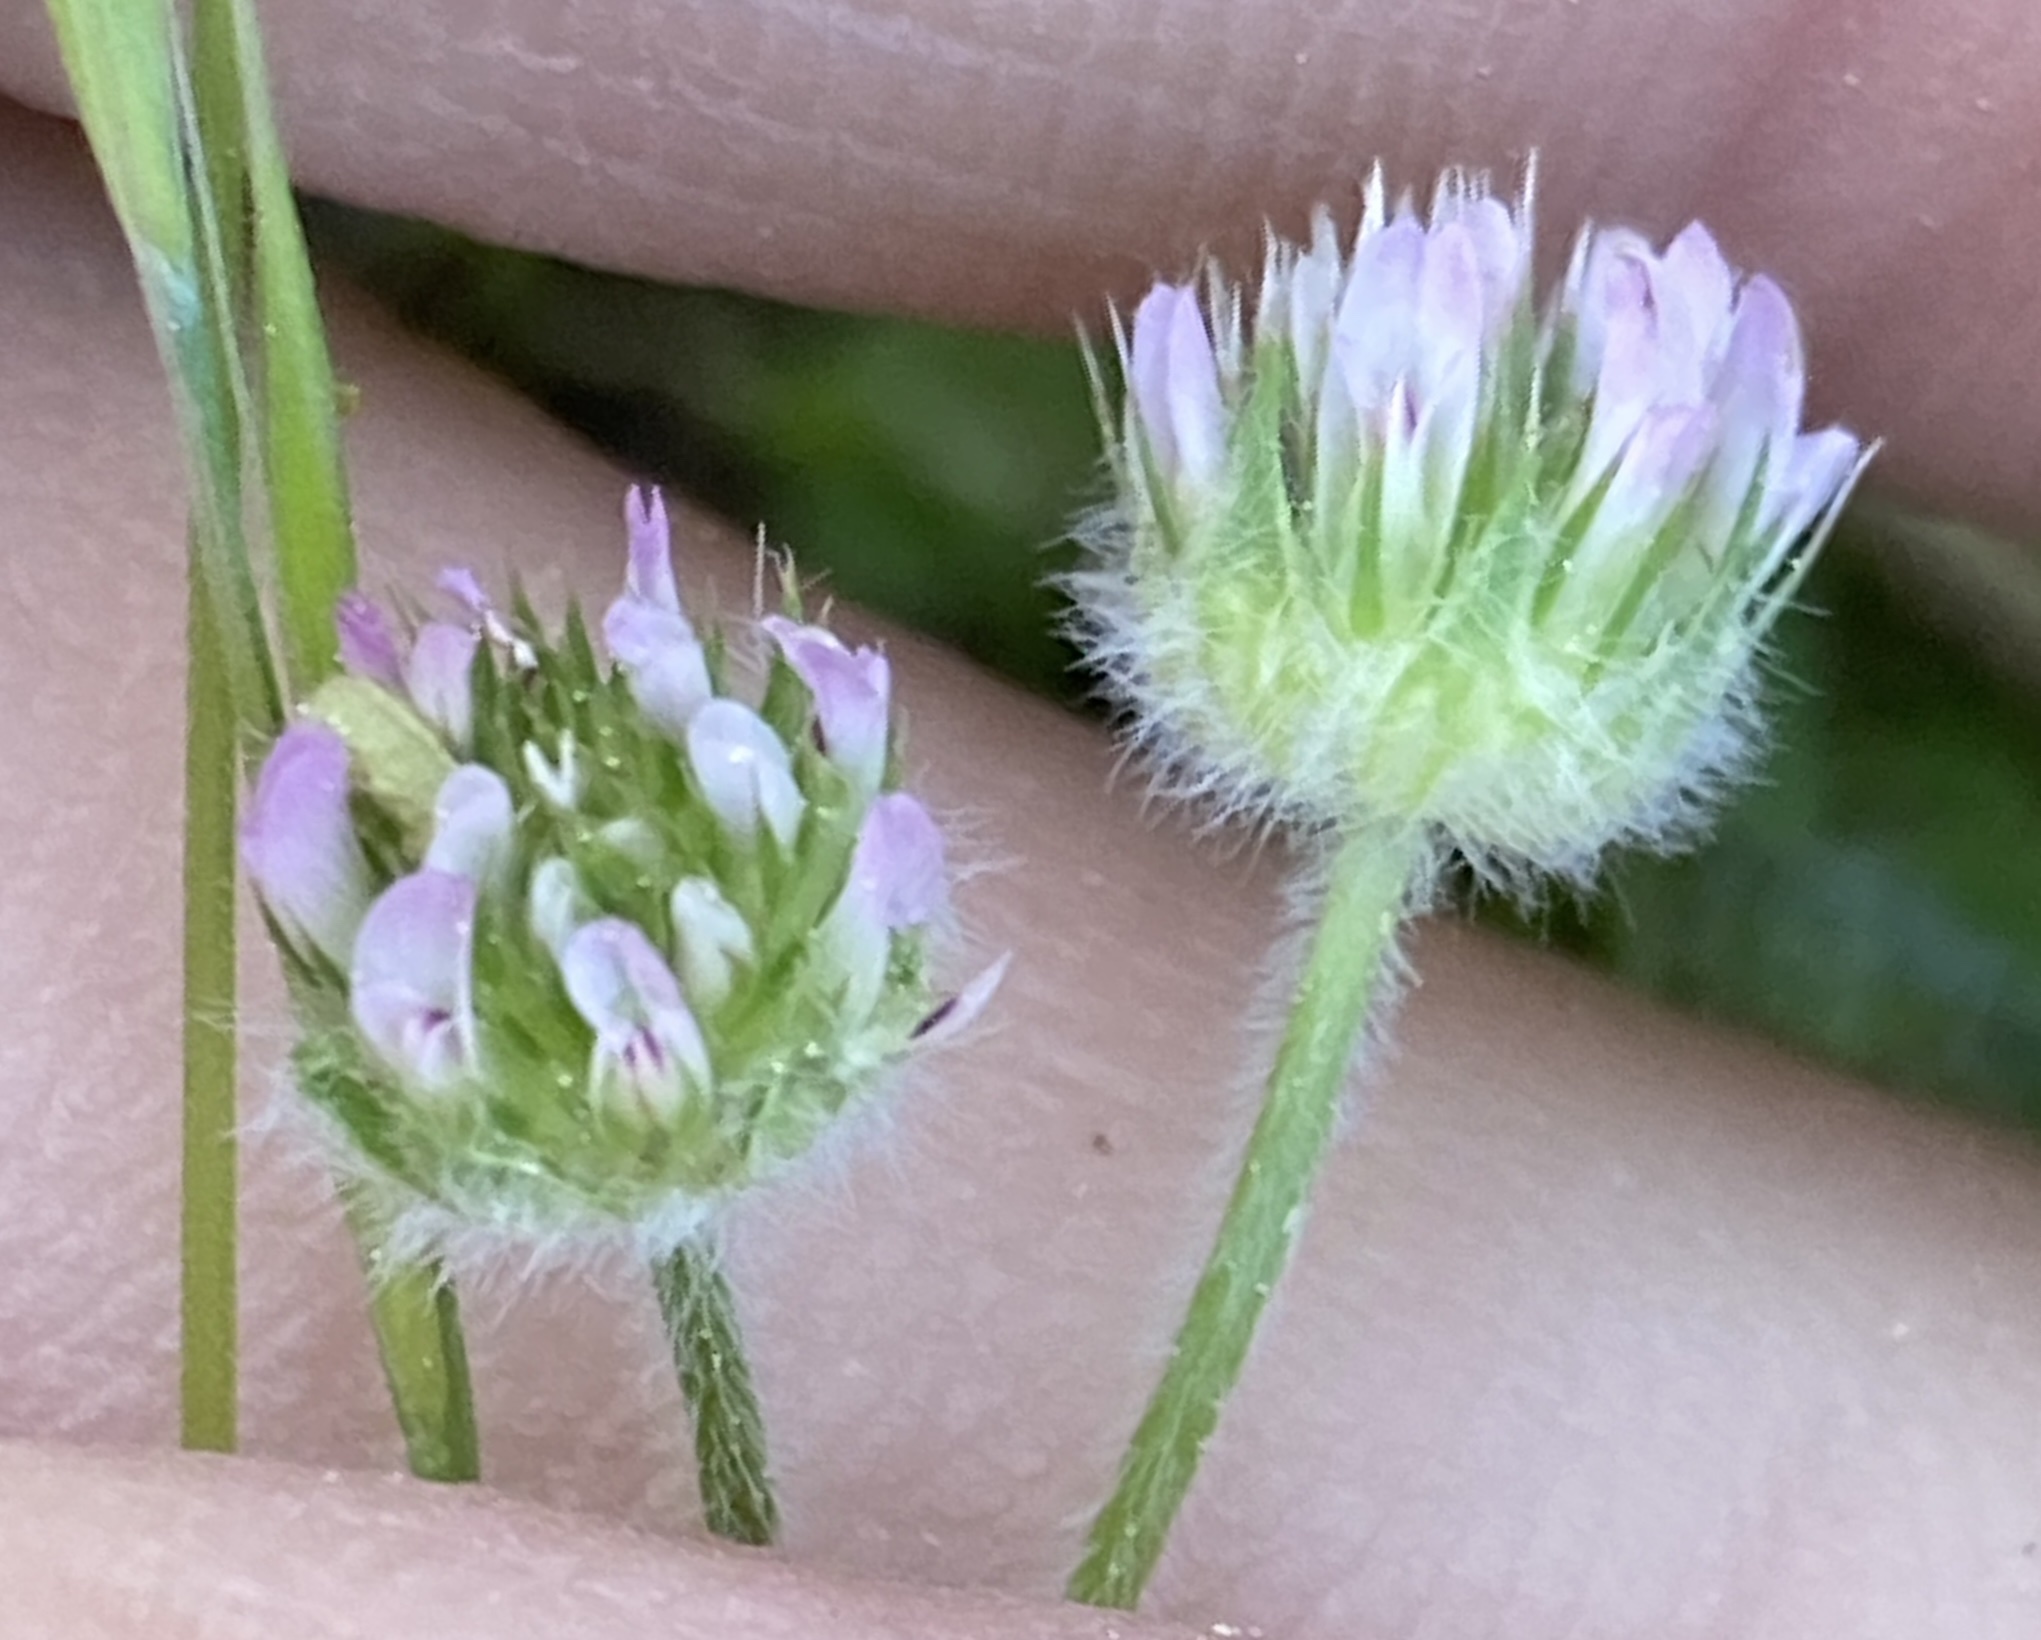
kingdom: Plantae
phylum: Tracheophyta
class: Magnoliopsida
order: Fabales
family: Fabaceae
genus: Trifolium
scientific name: Trifolium microcephalum
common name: Maiden clover
